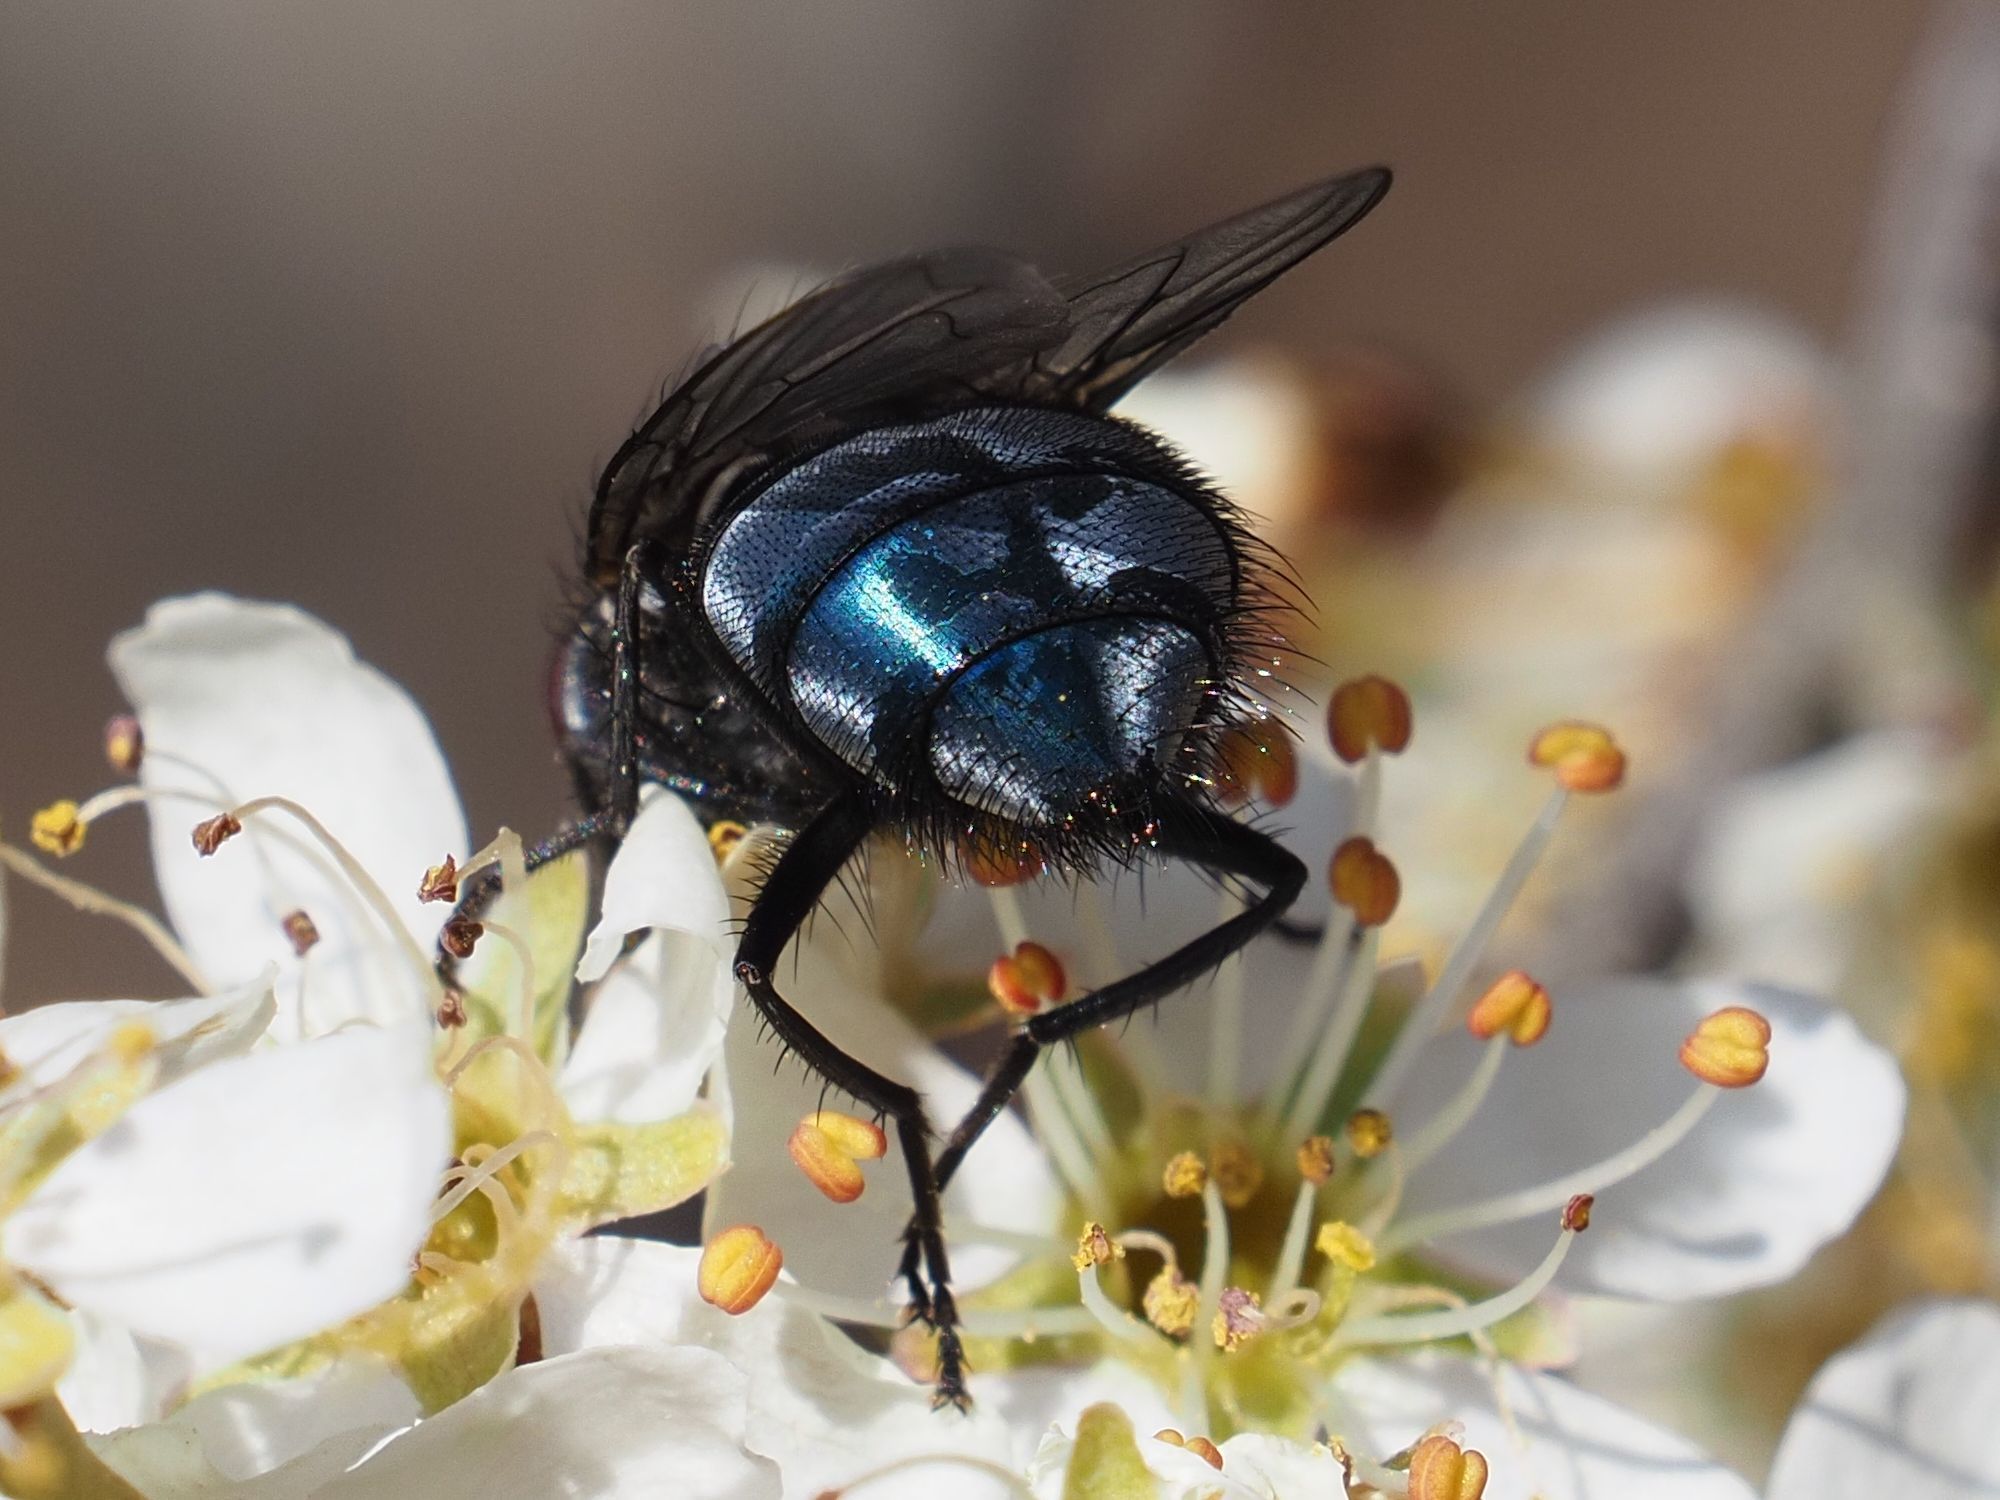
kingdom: Animalia
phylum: Arthropoda
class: Insecta
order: Diptera
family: Calliphoridae
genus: Calliphora
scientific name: Calliphora vicina
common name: Common blow flie
